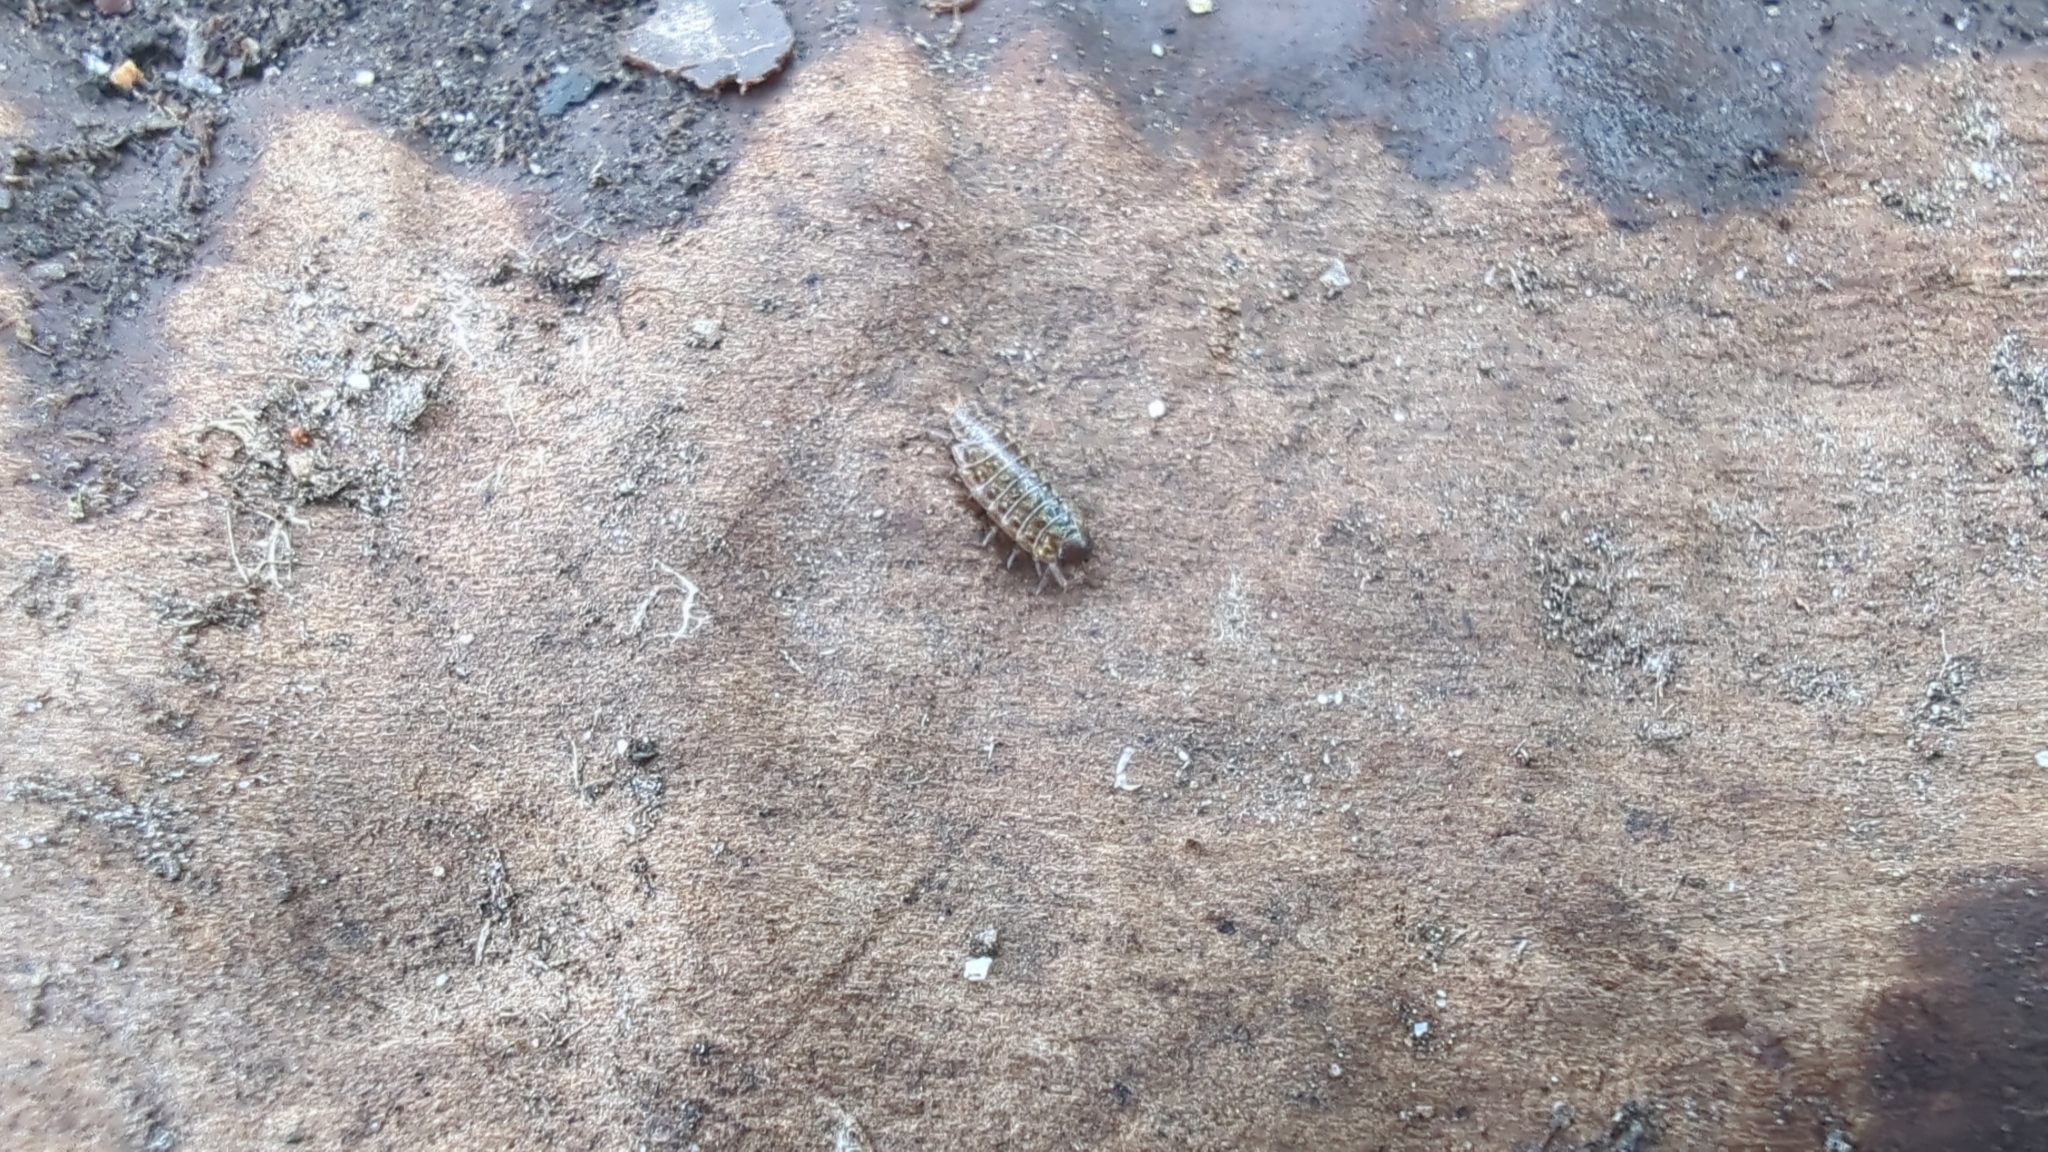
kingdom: Animalia
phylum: Arthropoda
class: Malacostraca
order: Isopoda
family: Philosciidae
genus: Philoscia
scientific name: Philoscia muscorum
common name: Common striped woodlouse
